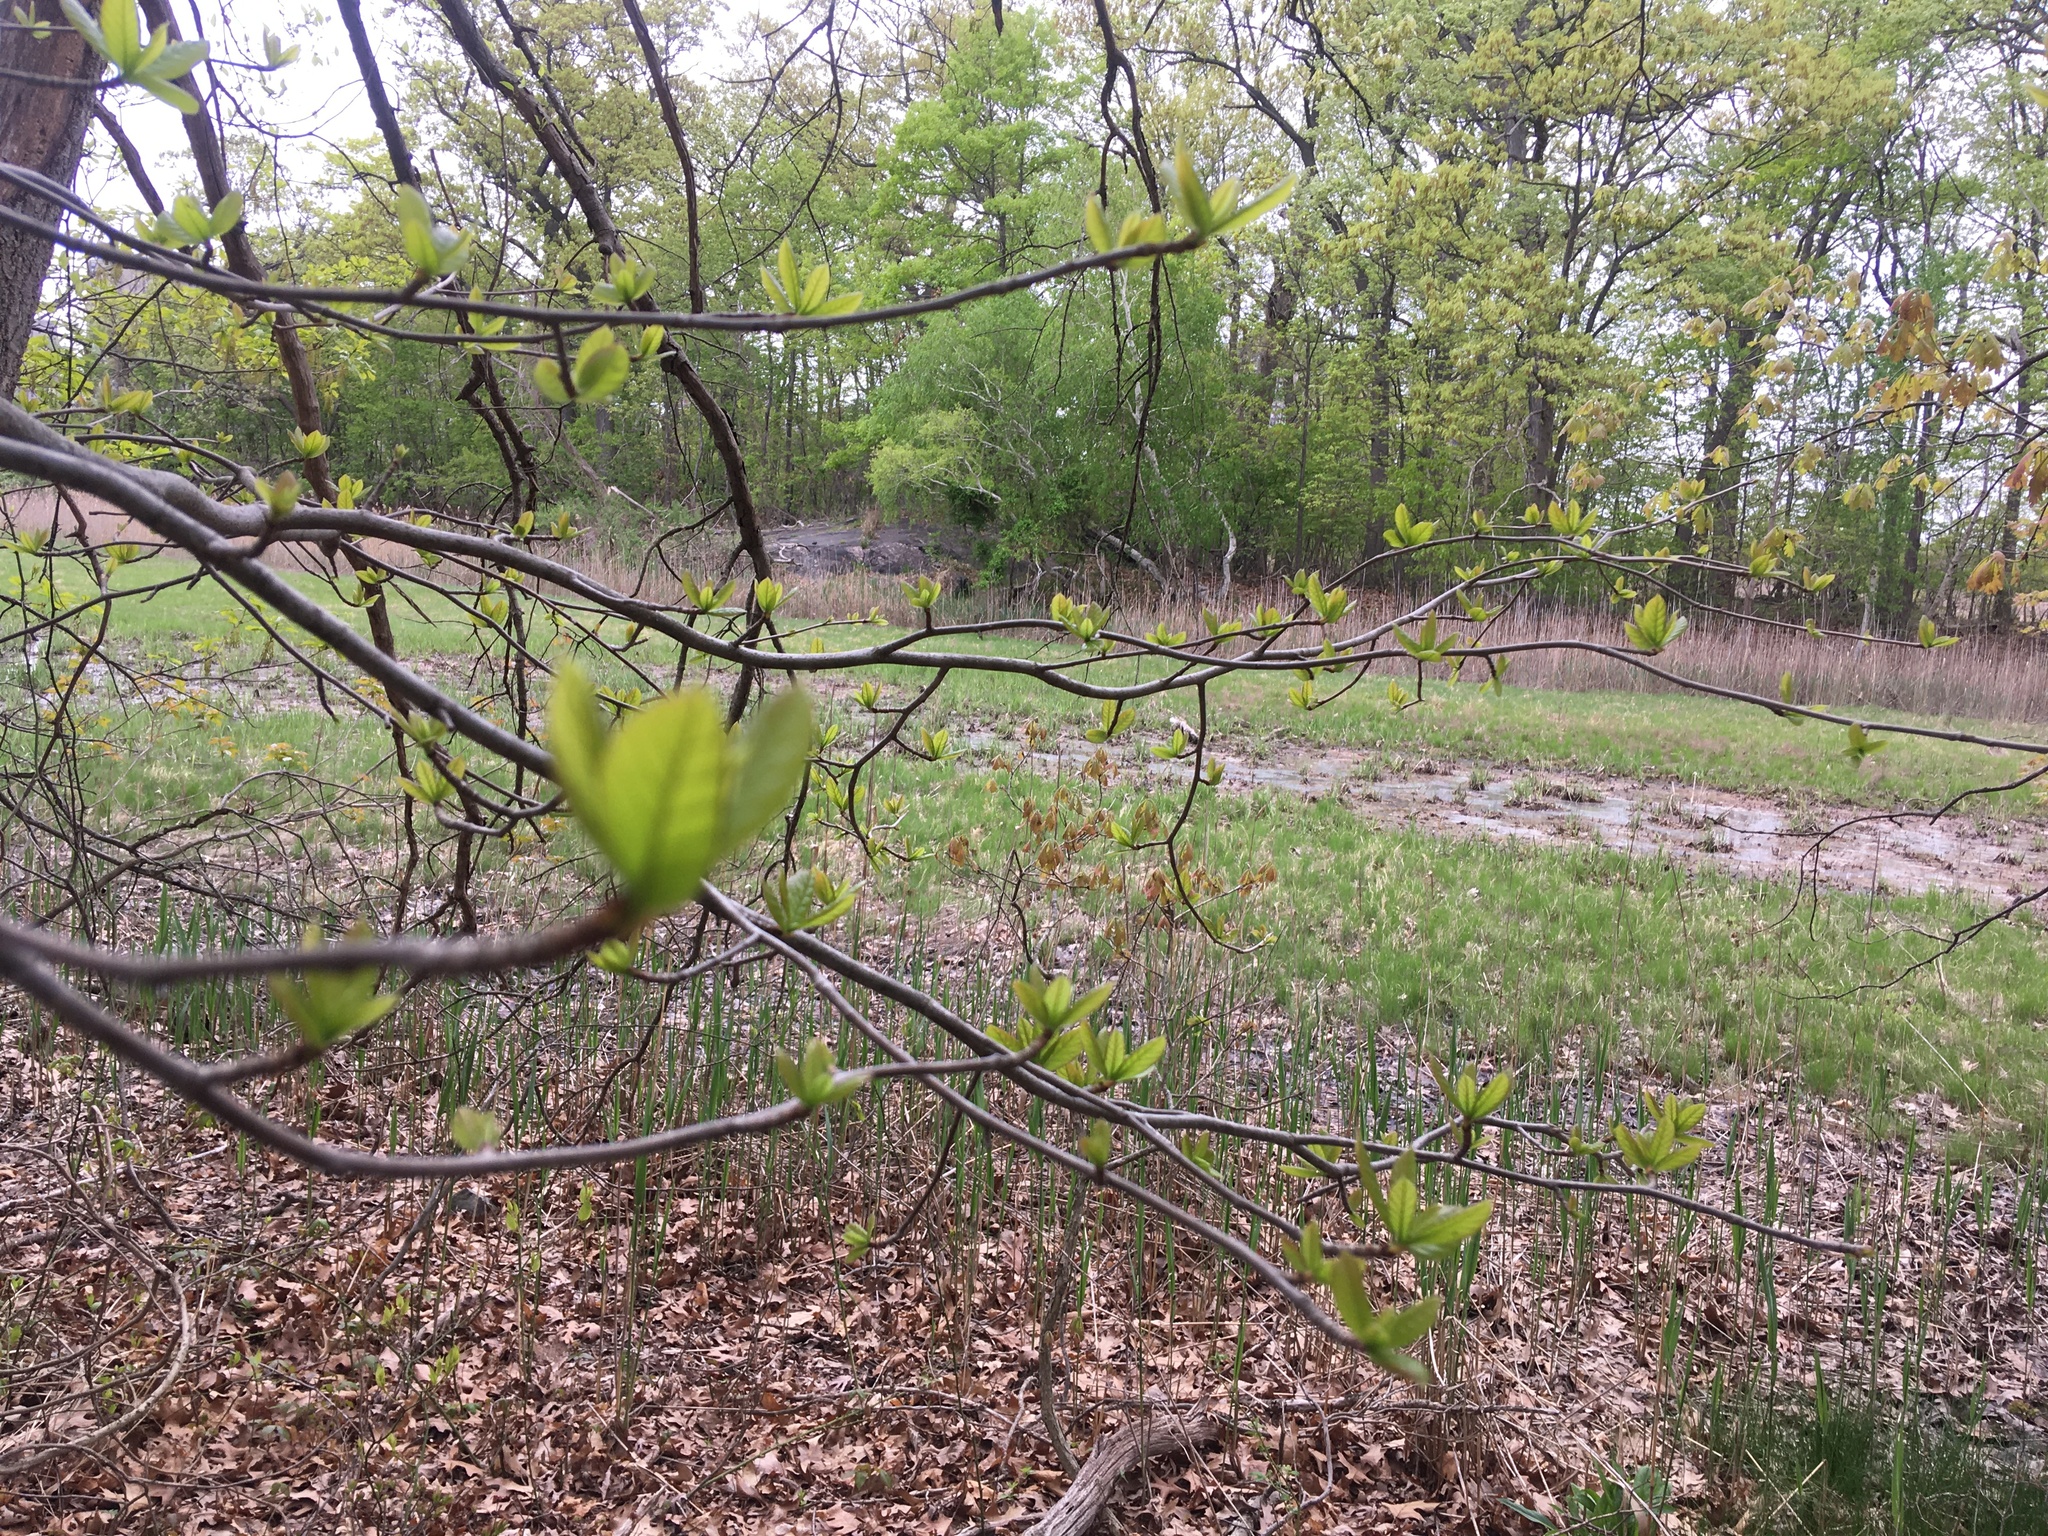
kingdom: Plantae
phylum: Tracheophyta
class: Magnoliopsida
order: Cornales
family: Nyssaceae
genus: Nyssa
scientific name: Nyssa sylvatica
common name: Black tupelo
